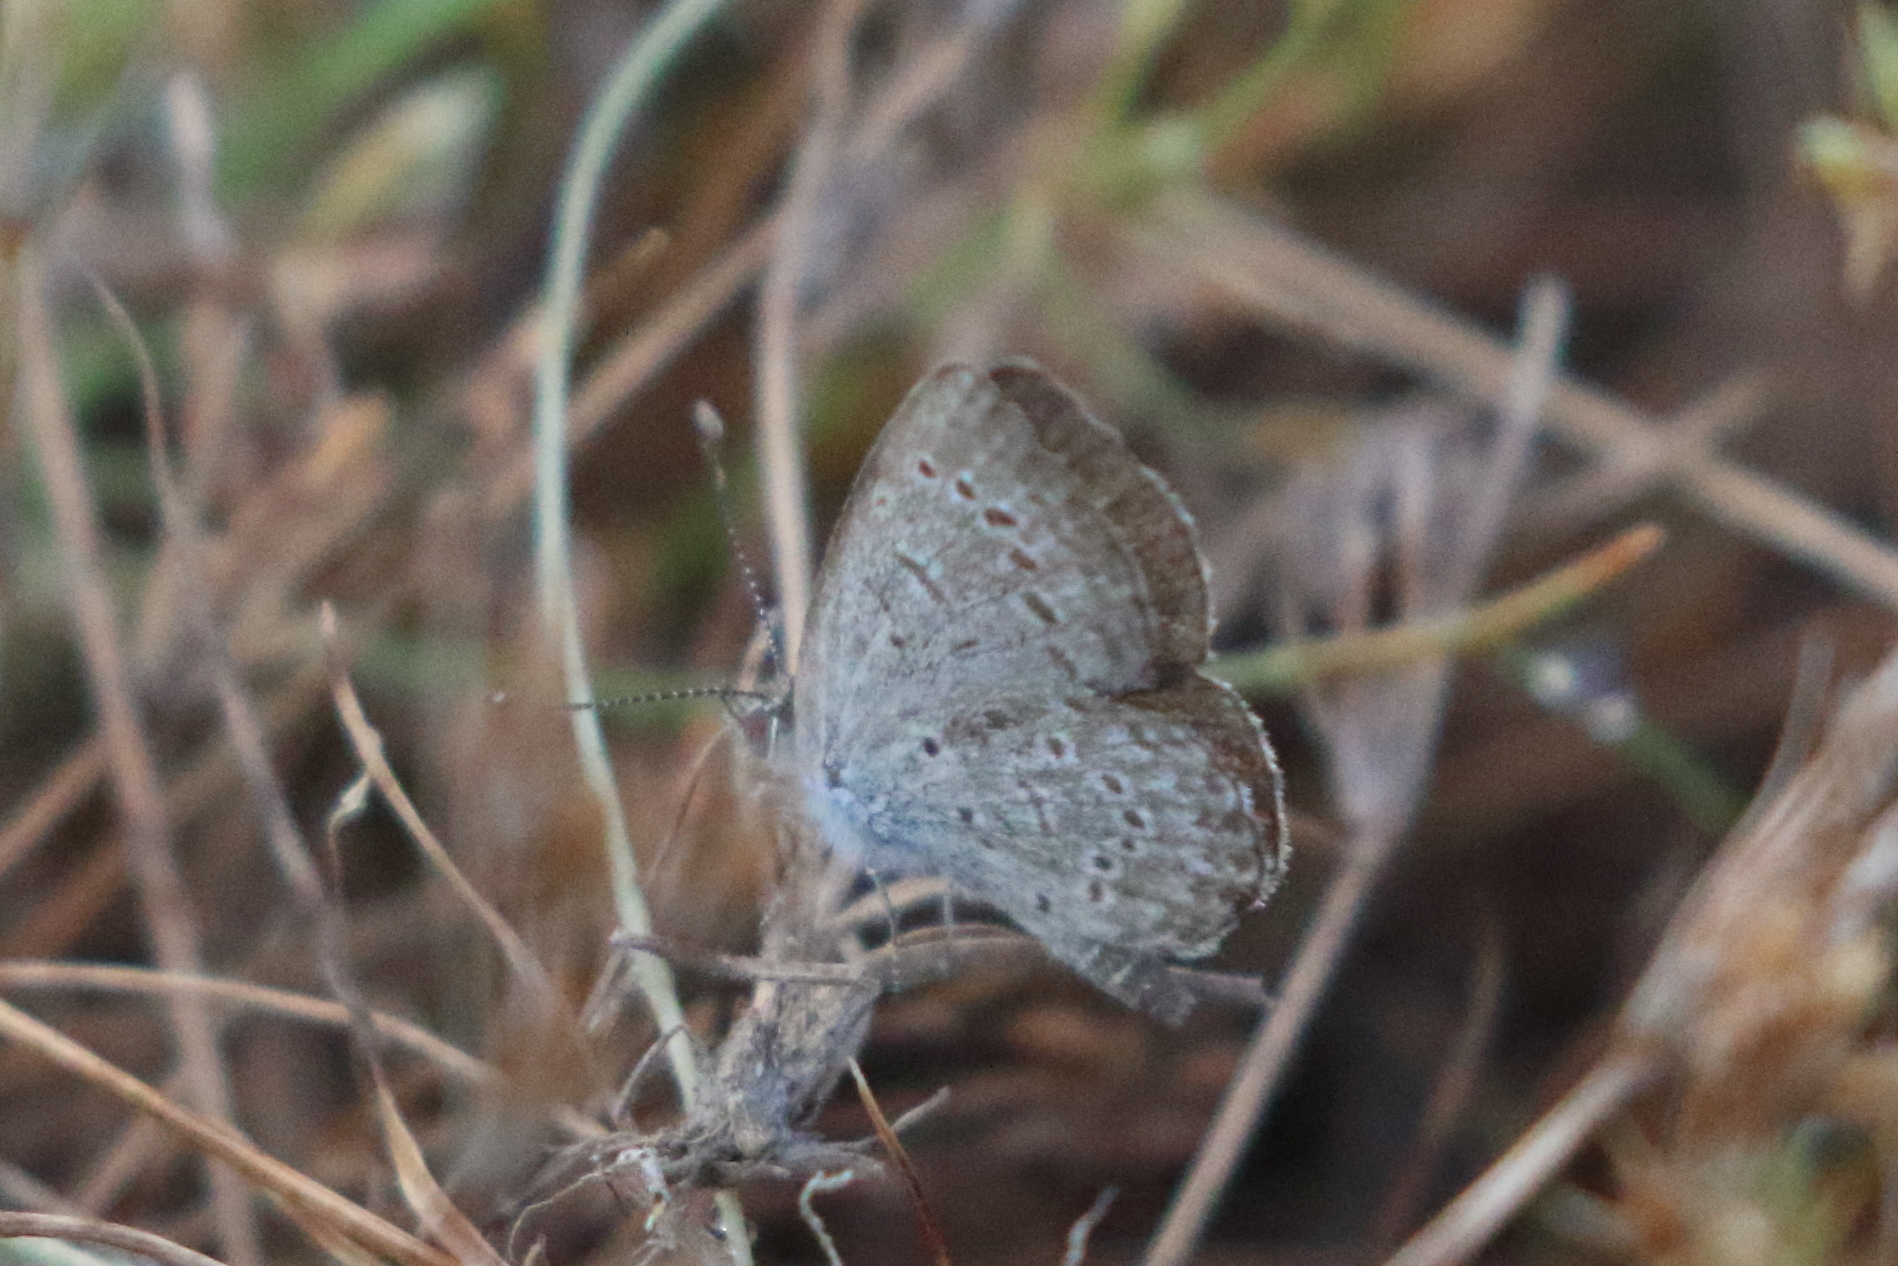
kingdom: Animalia
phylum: Arthropoda
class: Insecta
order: Lepidoptera
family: Lycaenidae
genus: Zizeeria
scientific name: Zizeeria karsandra
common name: Dark grass blue
